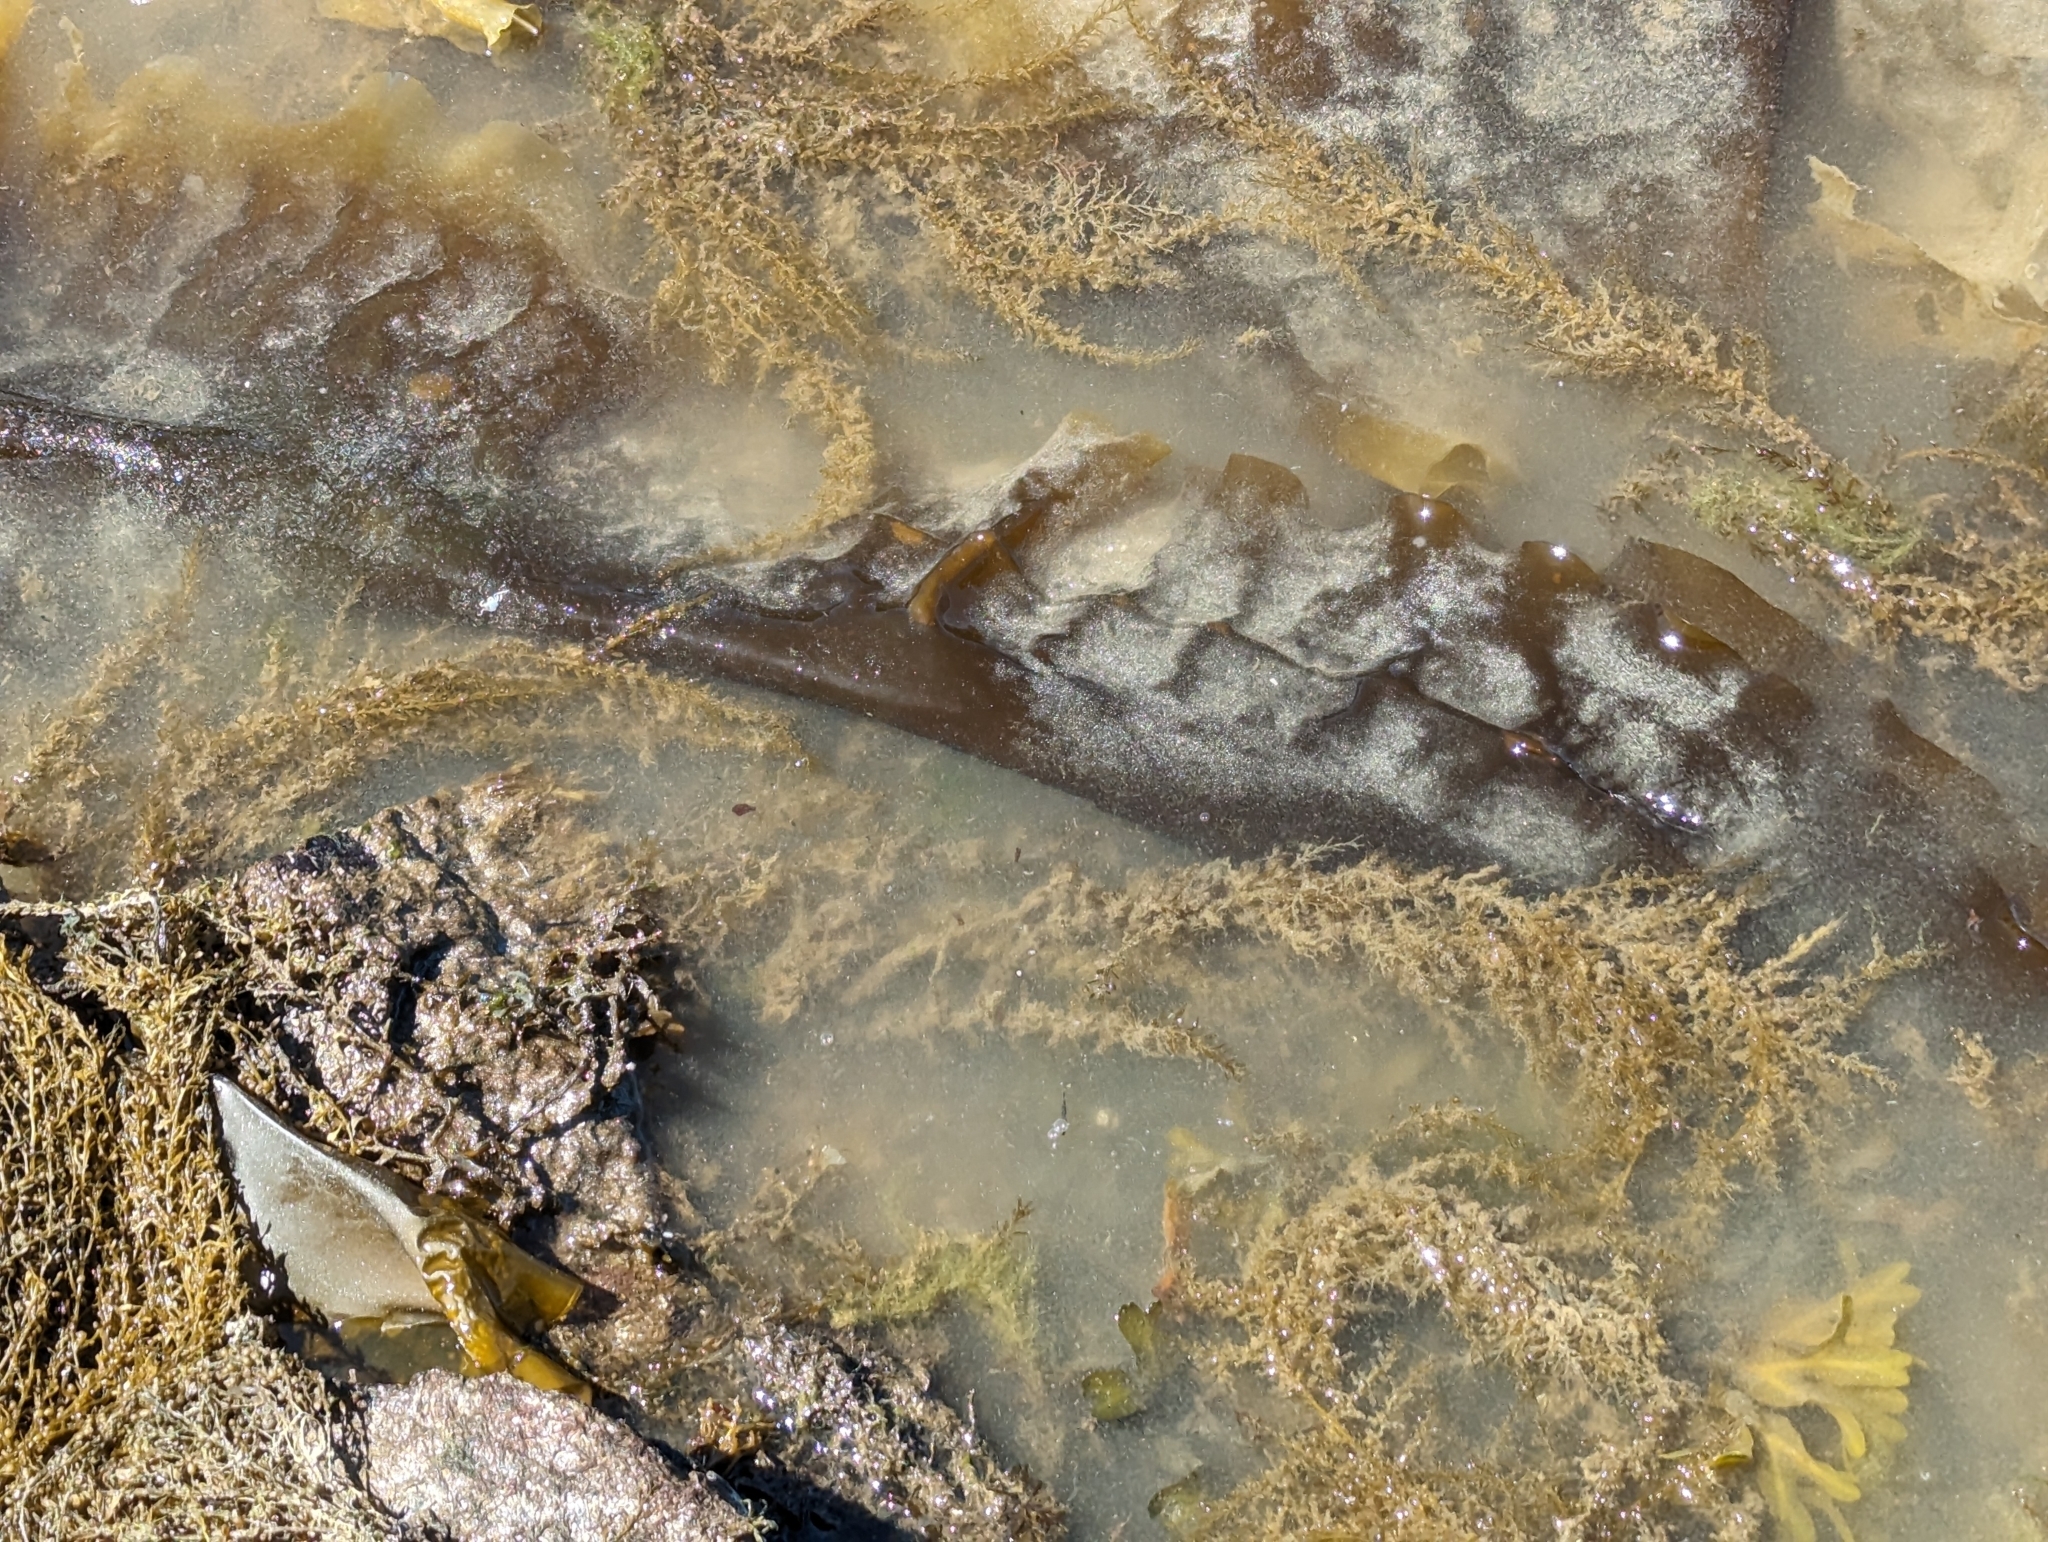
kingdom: Chromista
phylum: Ochrophyta
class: Phaeophyceae
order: Laminariales
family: Laminariaceae
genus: Saccharina
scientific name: Saccharina latissima
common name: Poor man's weather glass
